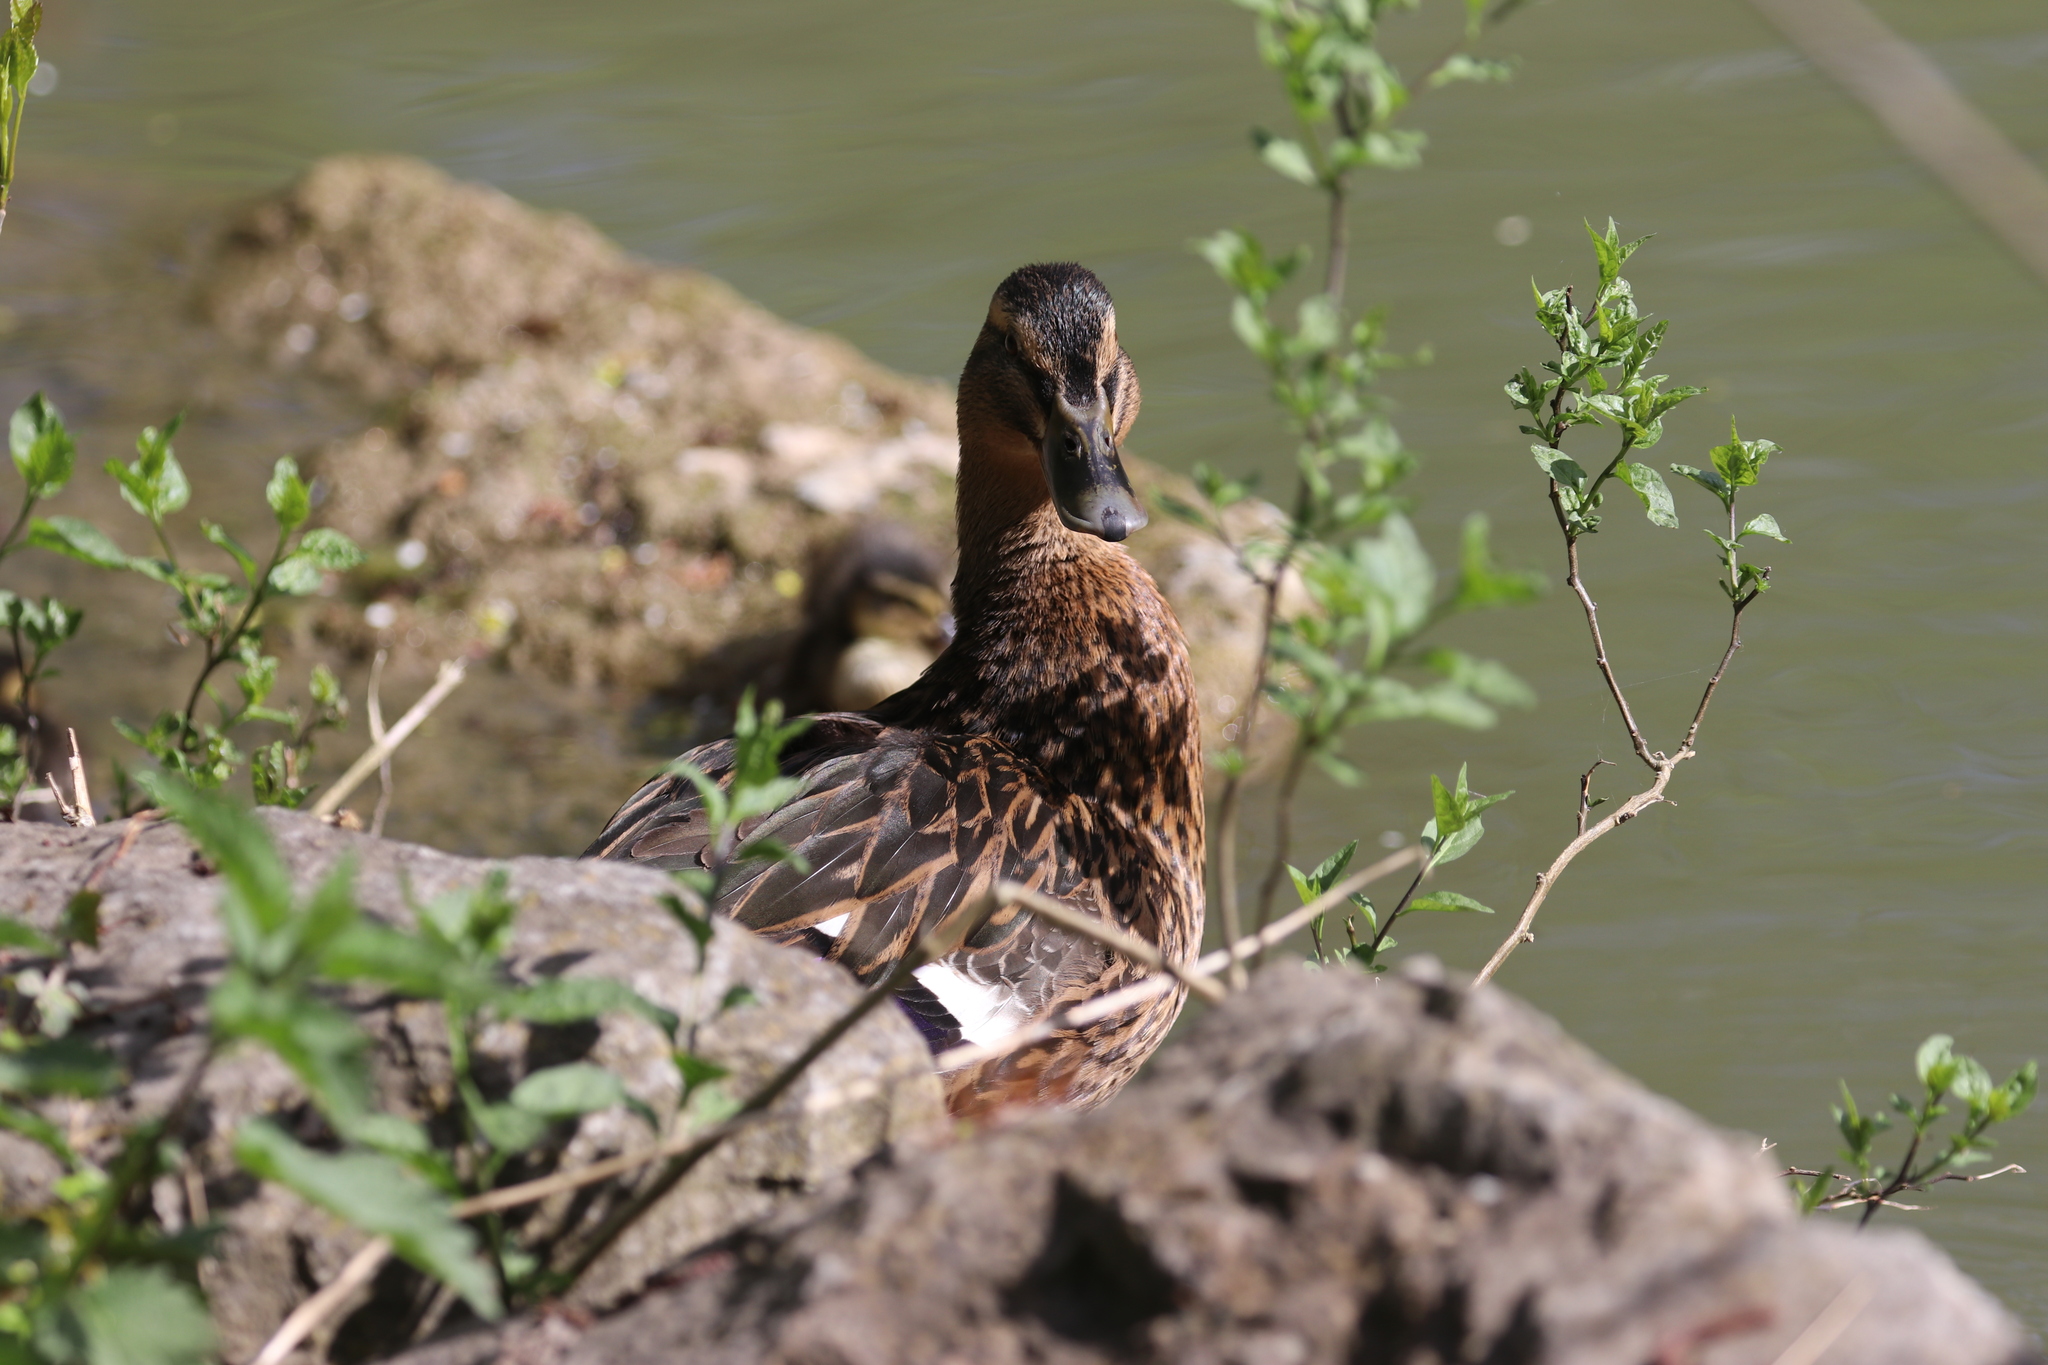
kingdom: Animalia
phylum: Chordata
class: Aves
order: Anseriformes
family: Anatidae
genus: Anas
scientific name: Anas platyrhynchos
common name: Mallard
